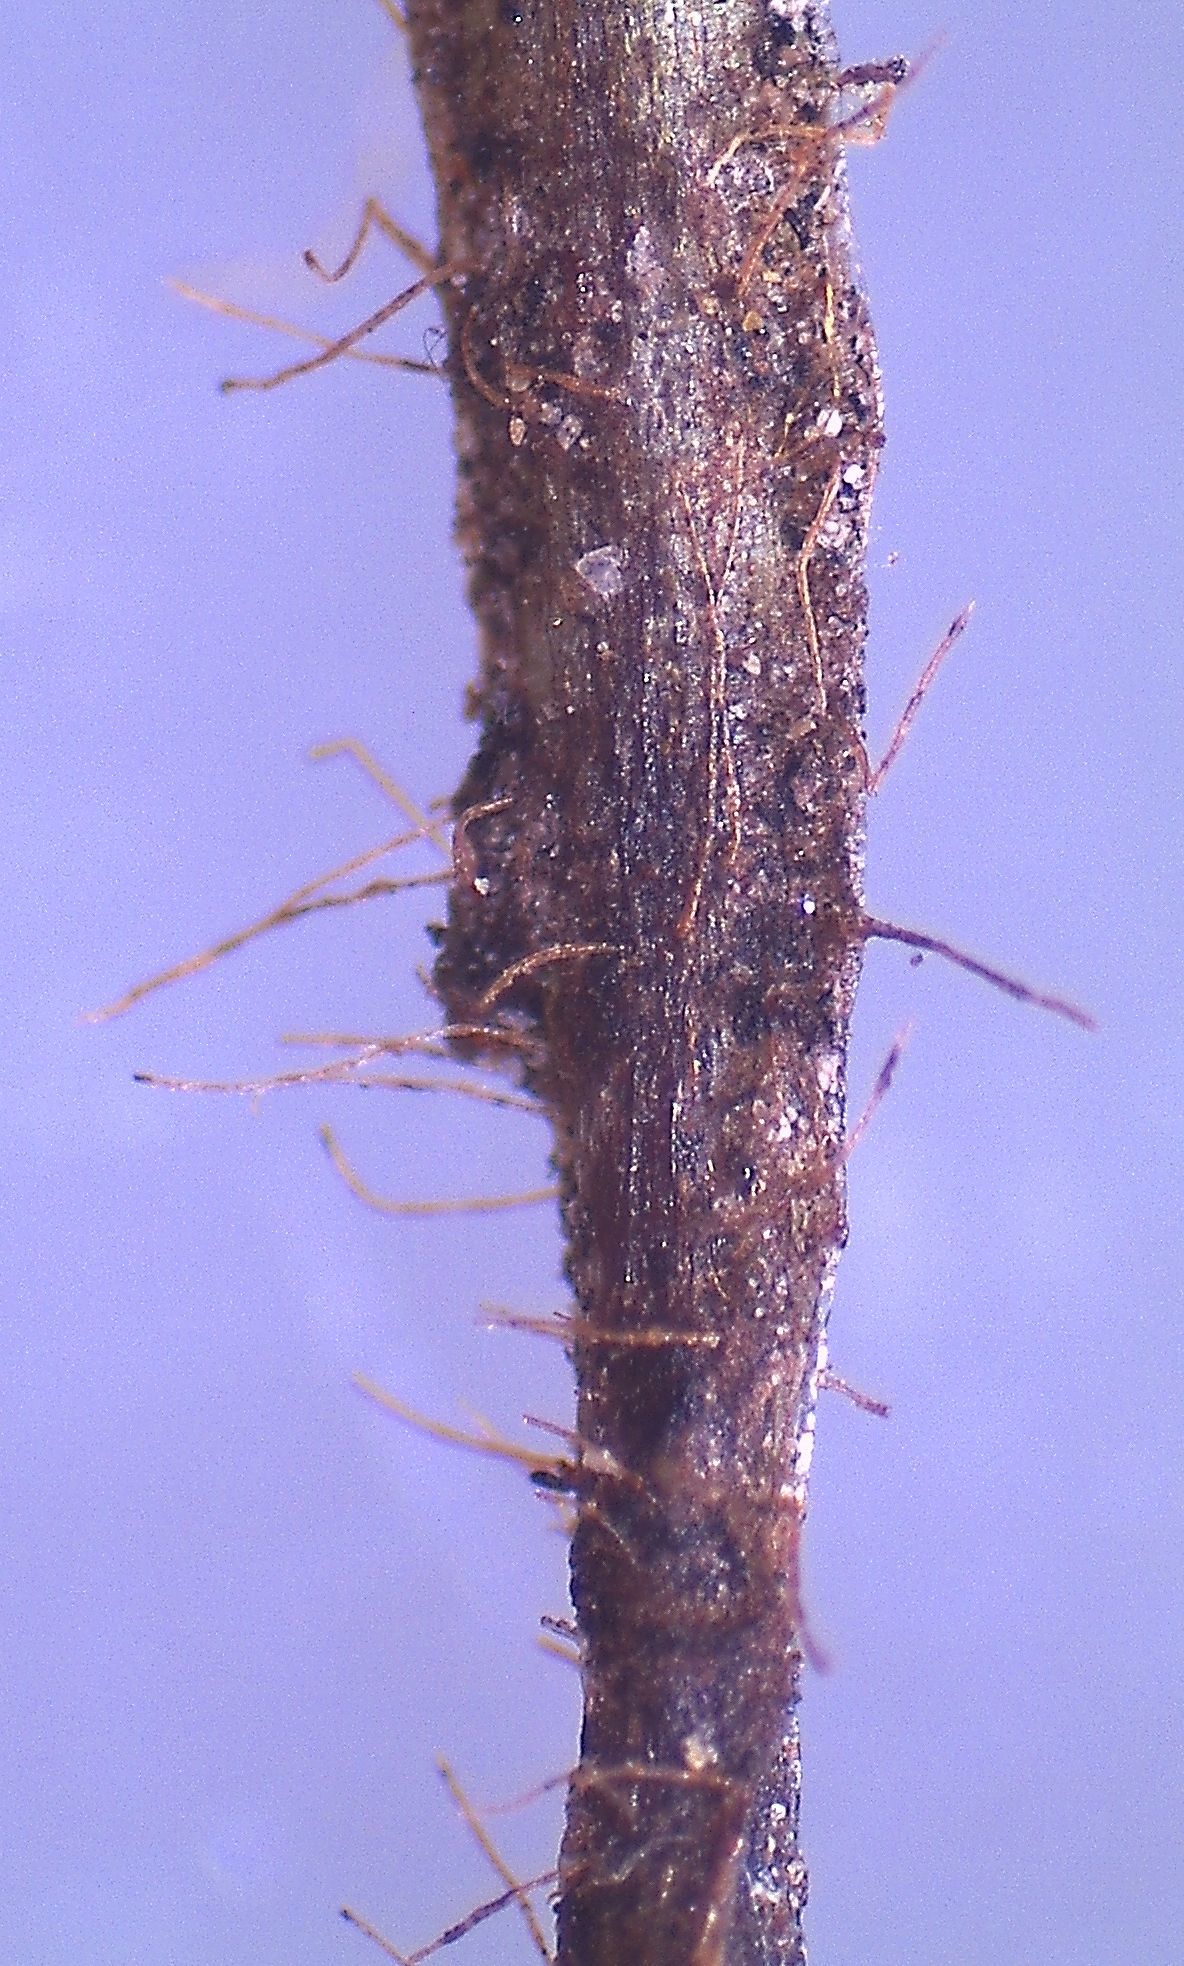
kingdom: Plantae
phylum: Tracheophyta
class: Polypodiopsida
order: Polypodiales
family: Polypodiaceae
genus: Notogrammitis
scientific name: Notogrammitis billardierei
